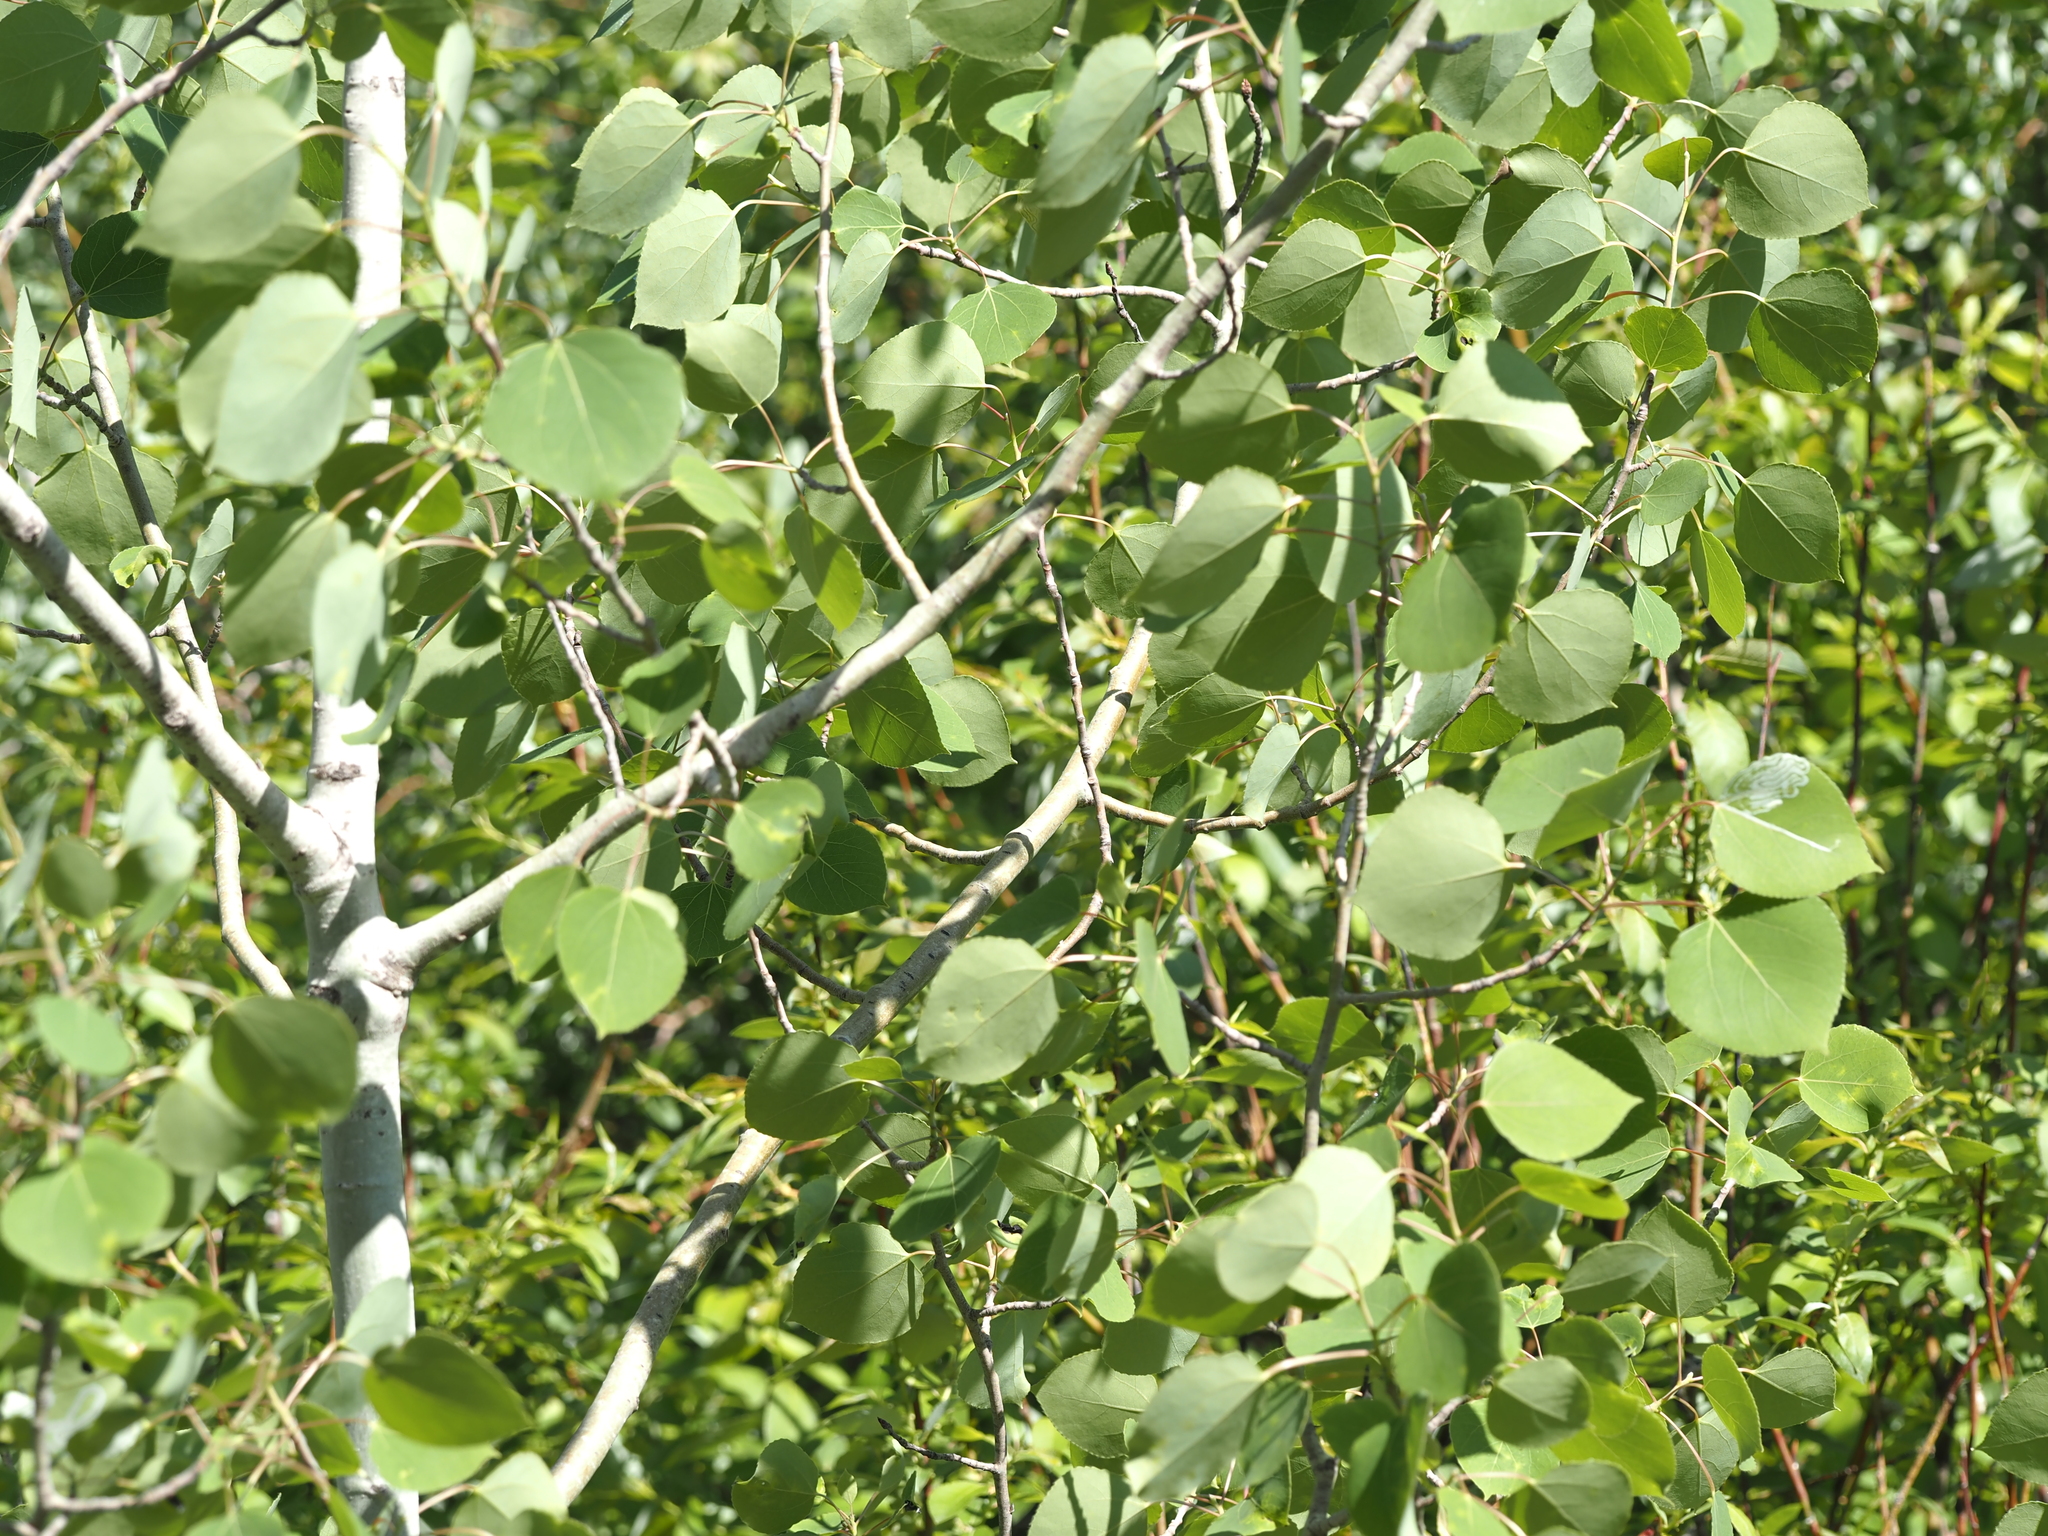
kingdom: Plantae
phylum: Tracheophyta
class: Magnoliopsida
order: Malpighiales
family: Salicaceae
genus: Populus
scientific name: Populus tremuloides
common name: Quaking aspen
